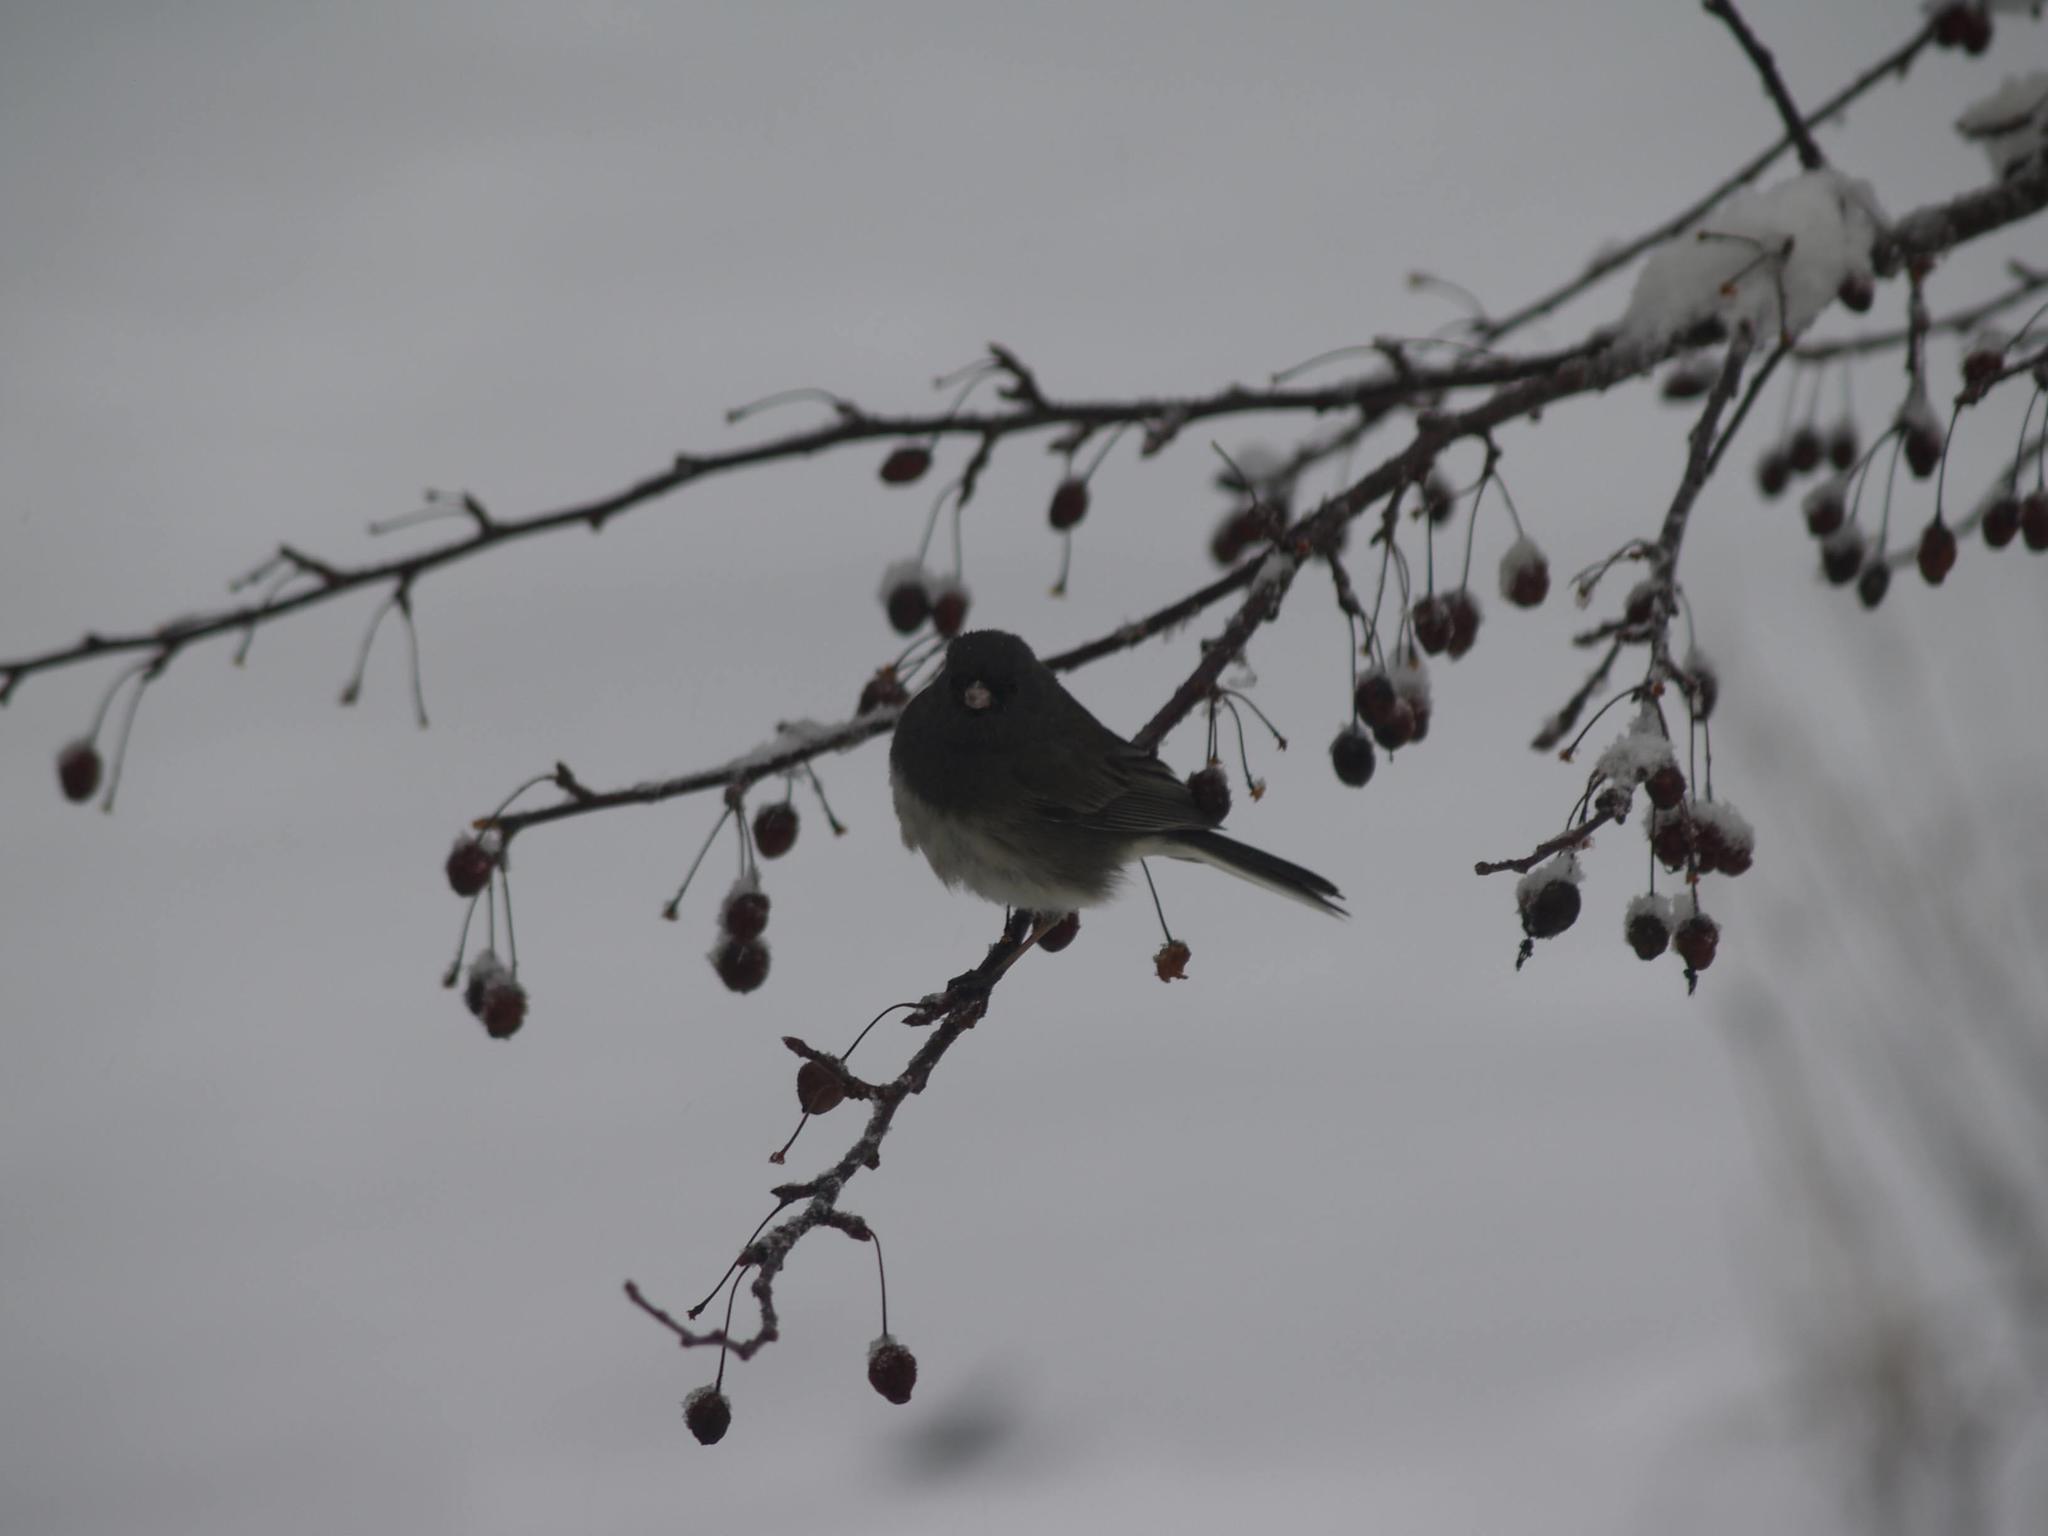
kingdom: Animalia
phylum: Chordata
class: Aves
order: Passeriformes
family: Passerellidae
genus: Junco
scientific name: Junco hyemalis
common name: Dark-eyed junco
